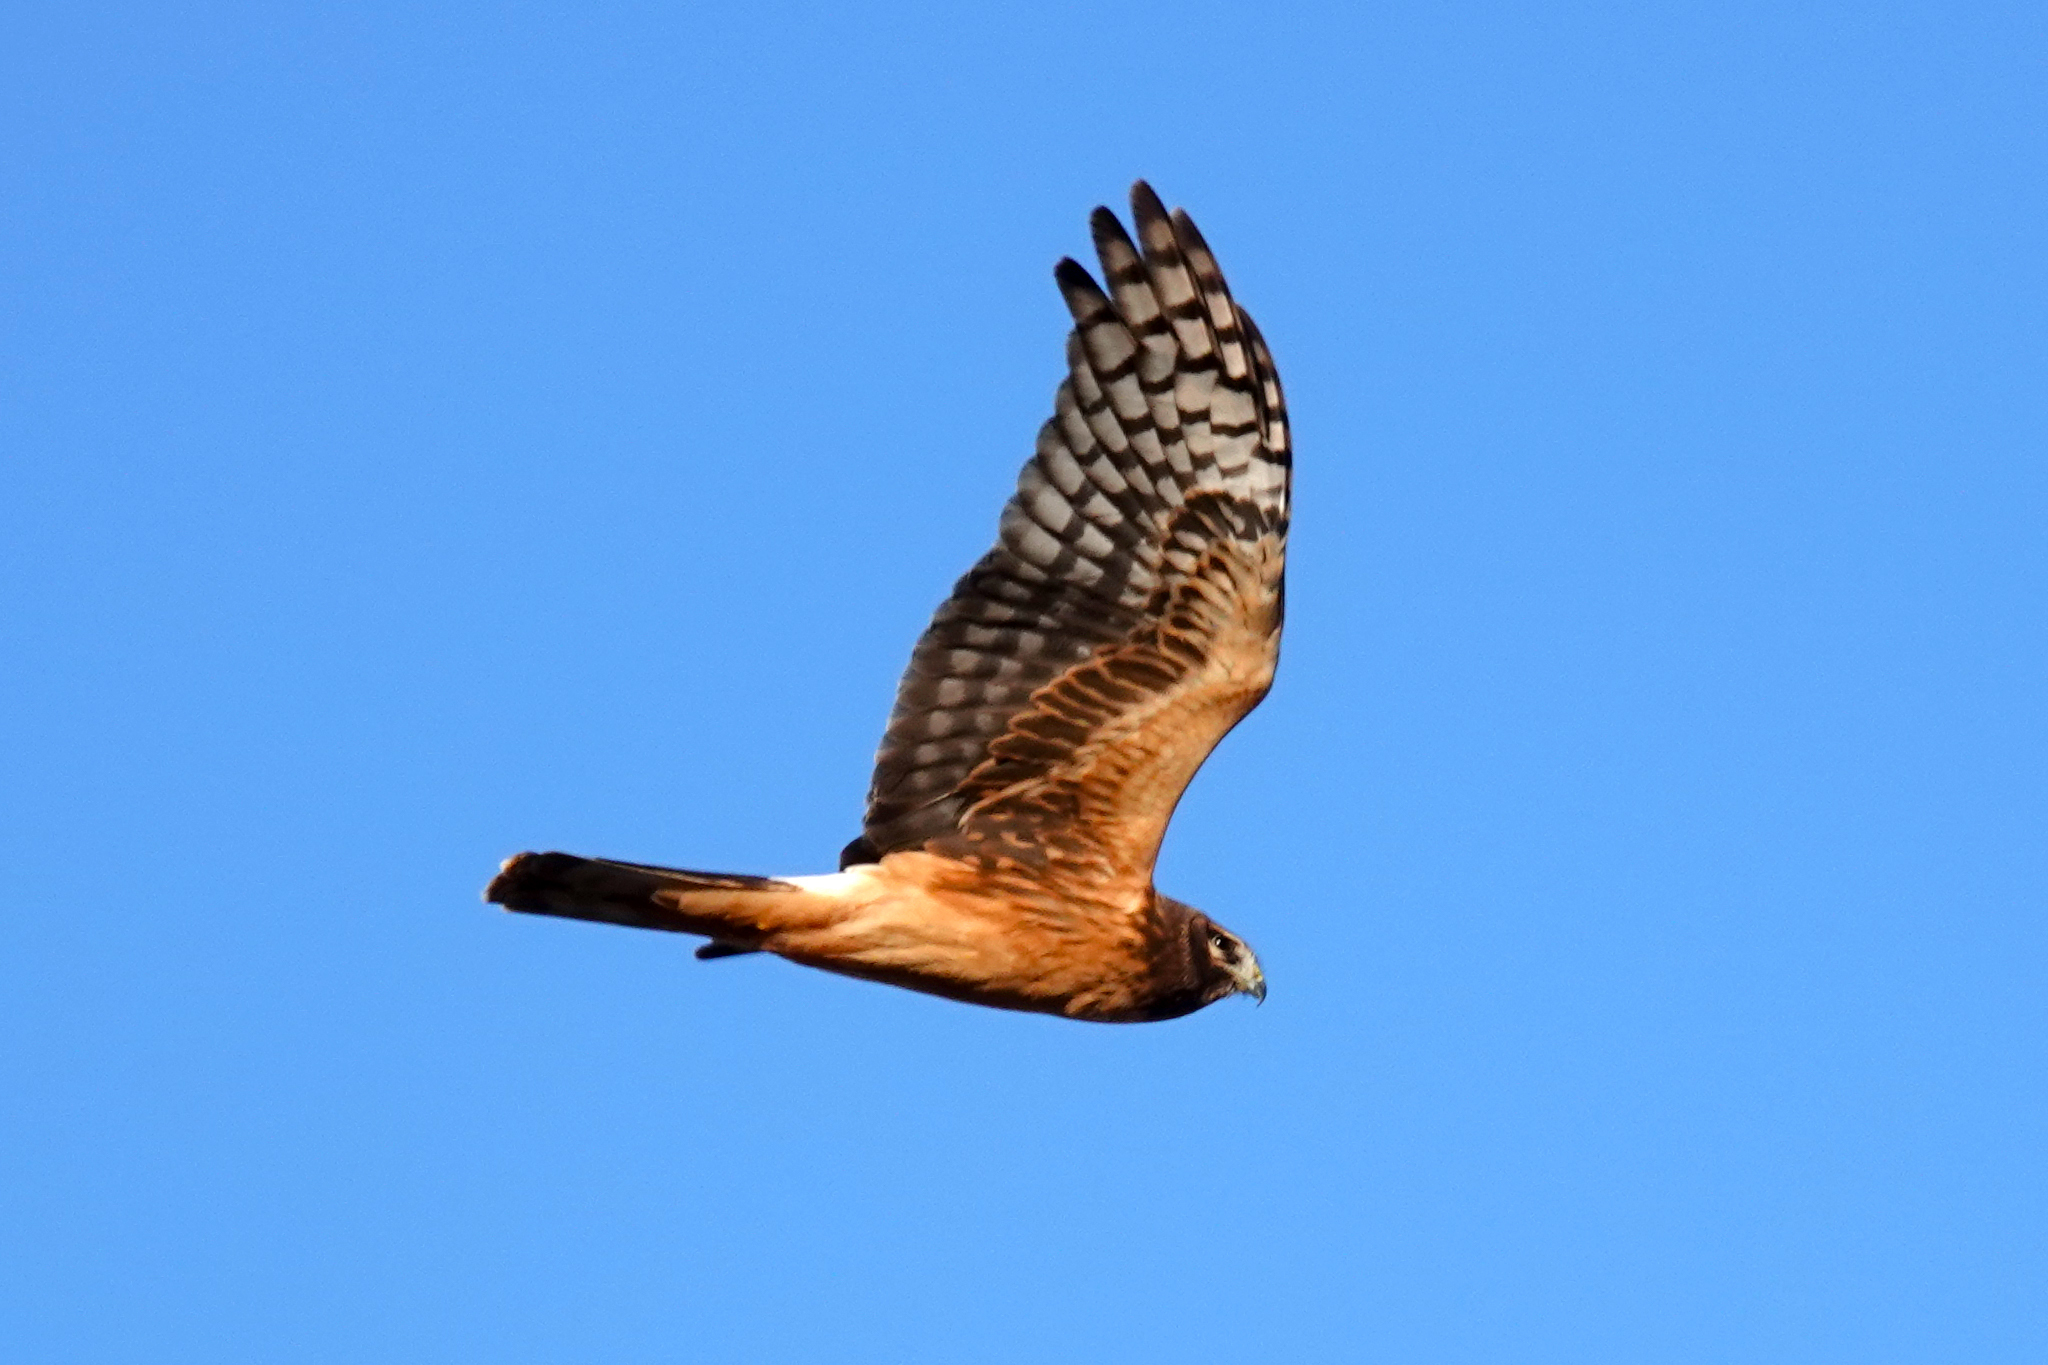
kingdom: Animalia
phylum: Chordata
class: Aves
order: Accipitriformes
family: Accipitridae
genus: Circus
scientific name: Circus cyaneus
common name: Hen harrier
